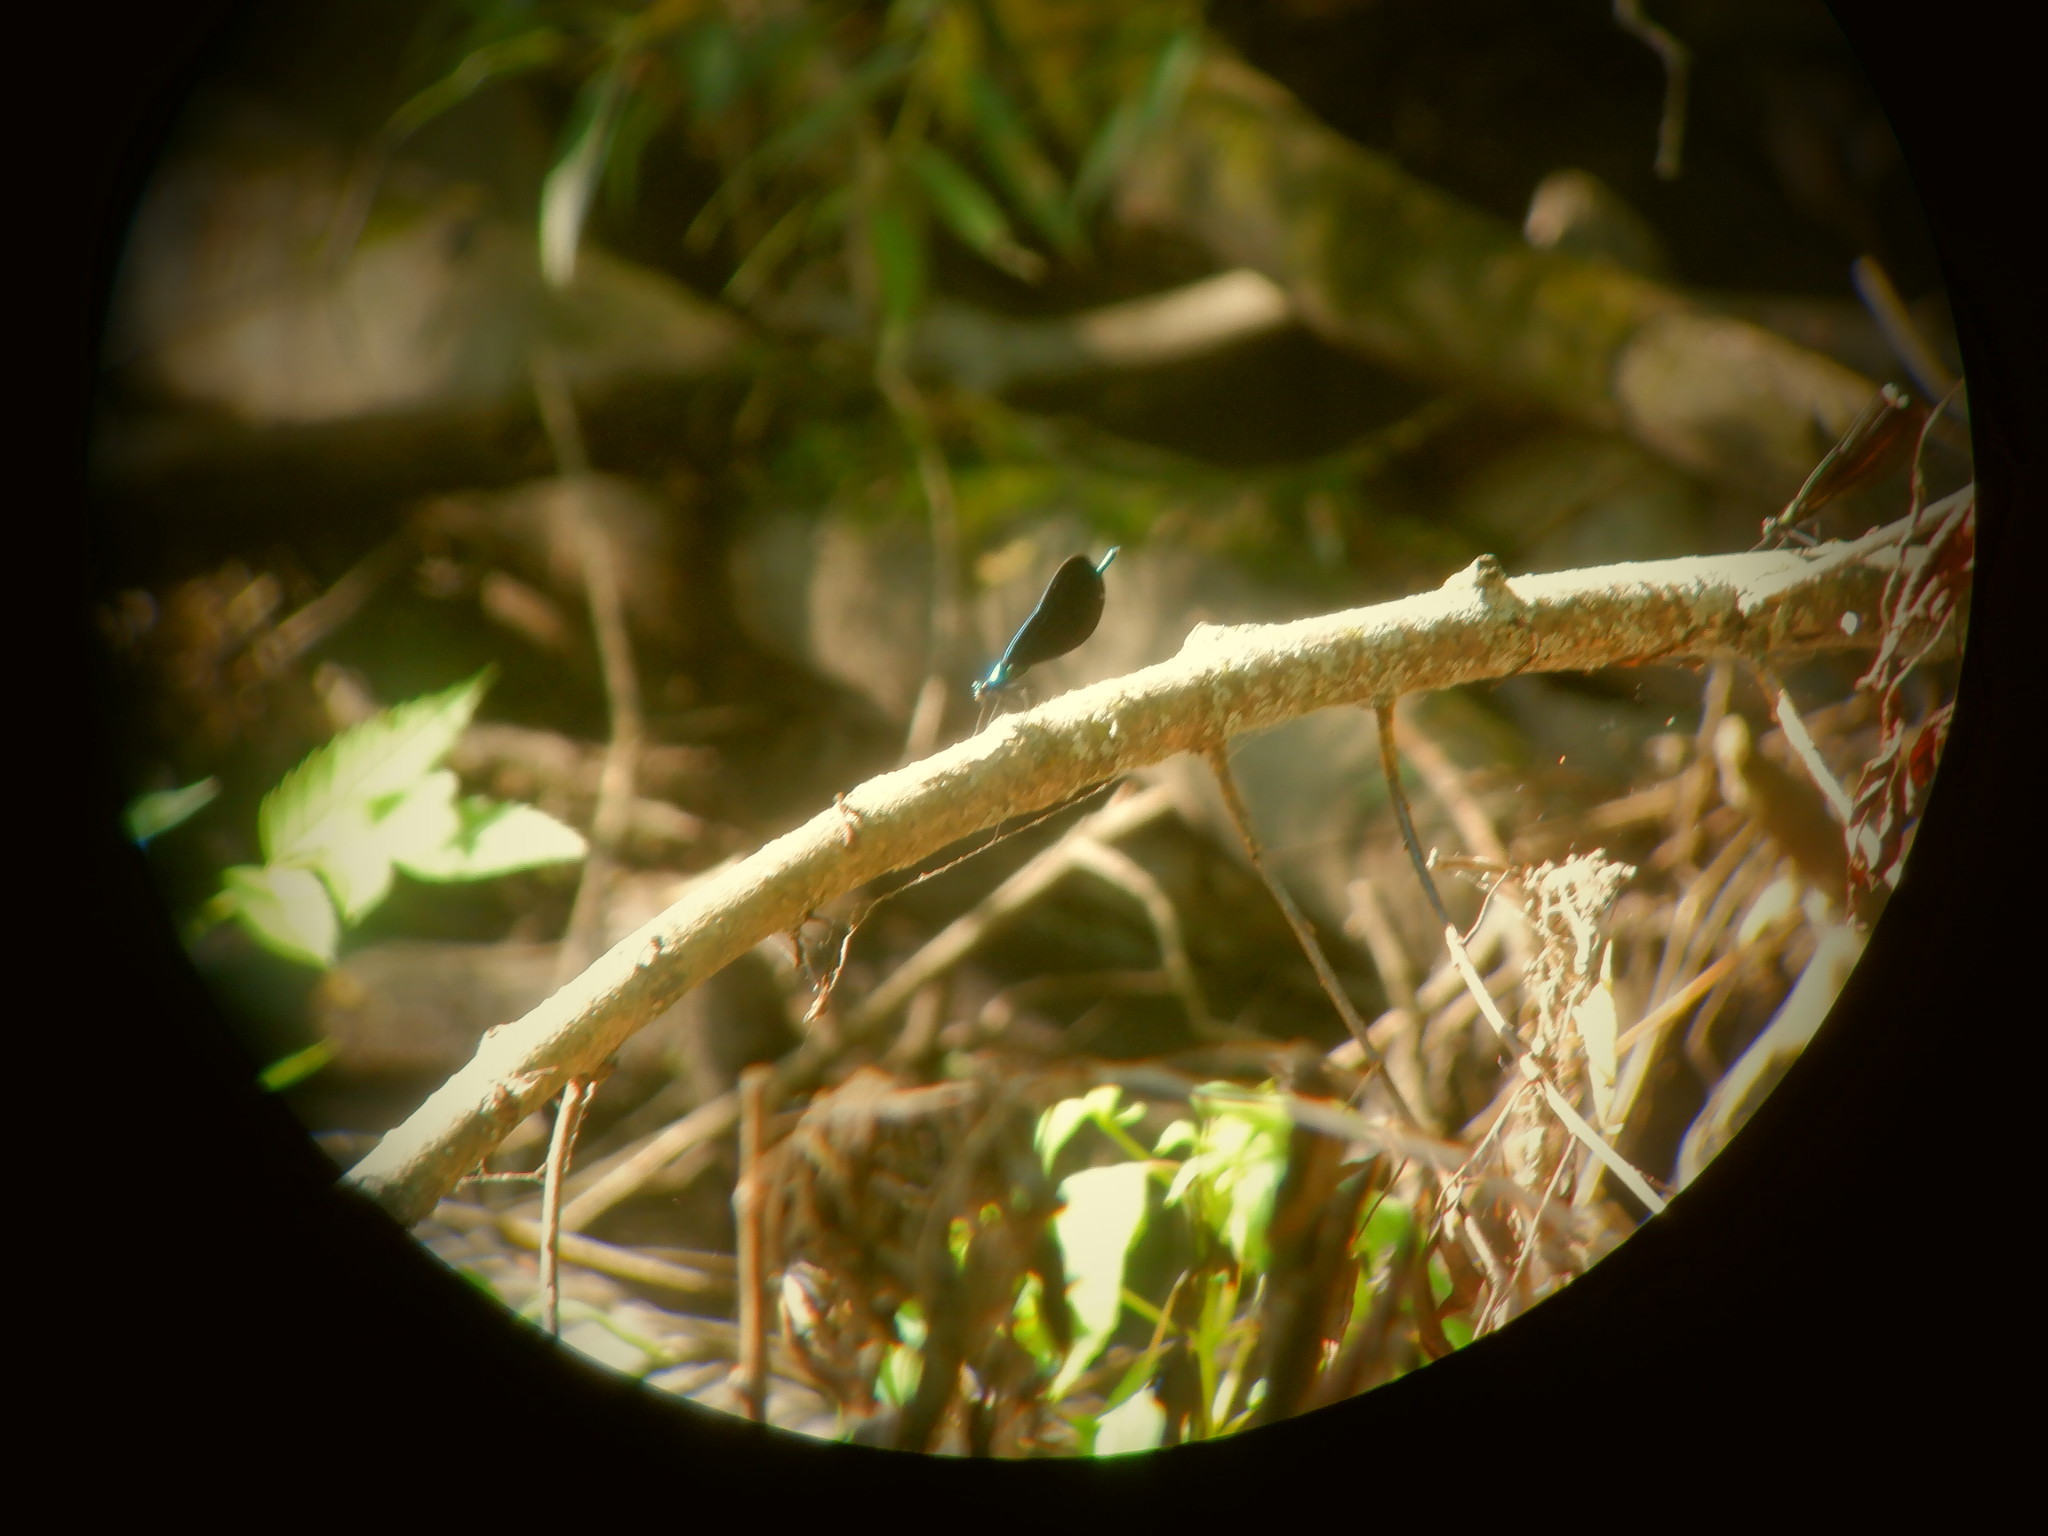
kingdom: Animalia
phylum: Arthropoda
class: Insecta
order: Odonata
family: Calopterygidae
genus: Calopteryx
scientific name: Calopteryx maculata
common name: Ebony jewelwing
